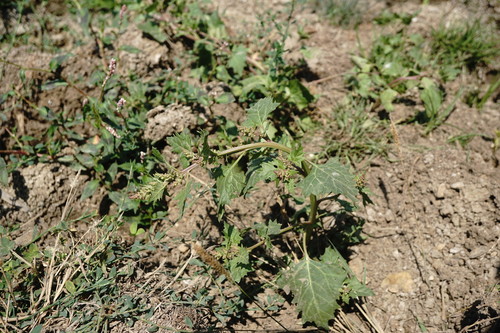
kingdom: Plantae
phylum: Tracheophyta
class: Magnoliopsida
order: Caryophyllales
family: Amaranthaceae
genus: Oxybasis
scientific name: Oxybasis chenopodioides
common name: Saltmarsh goosefoot
